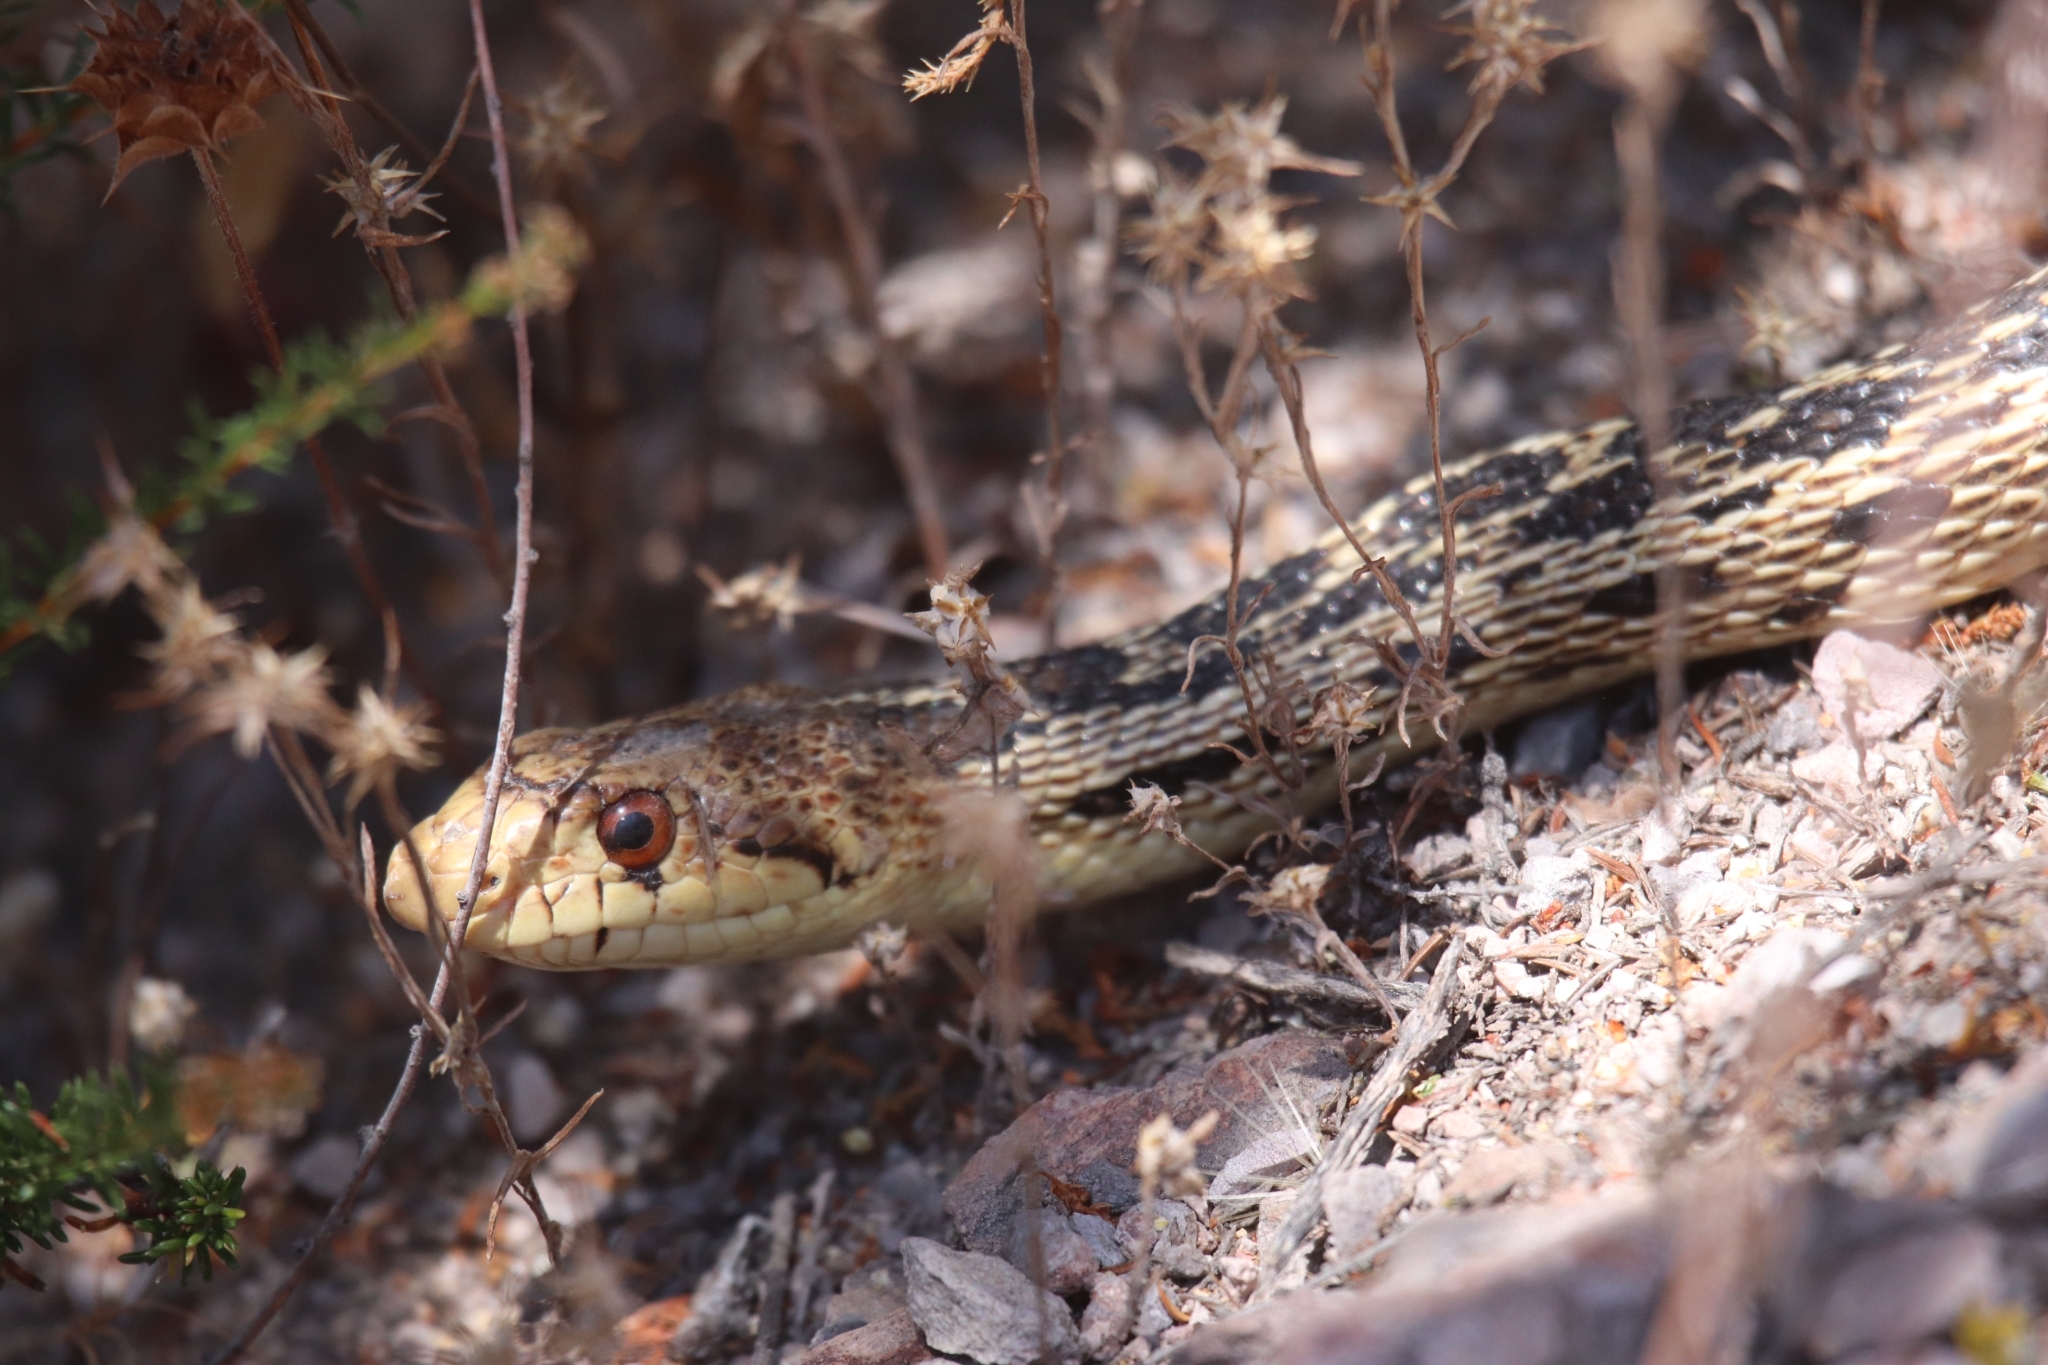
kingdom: Animalia
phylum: Chordata
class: Squamata
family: Colubridae
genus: Pituophis
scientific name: Pituophis catenifer
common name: Gopher snake
